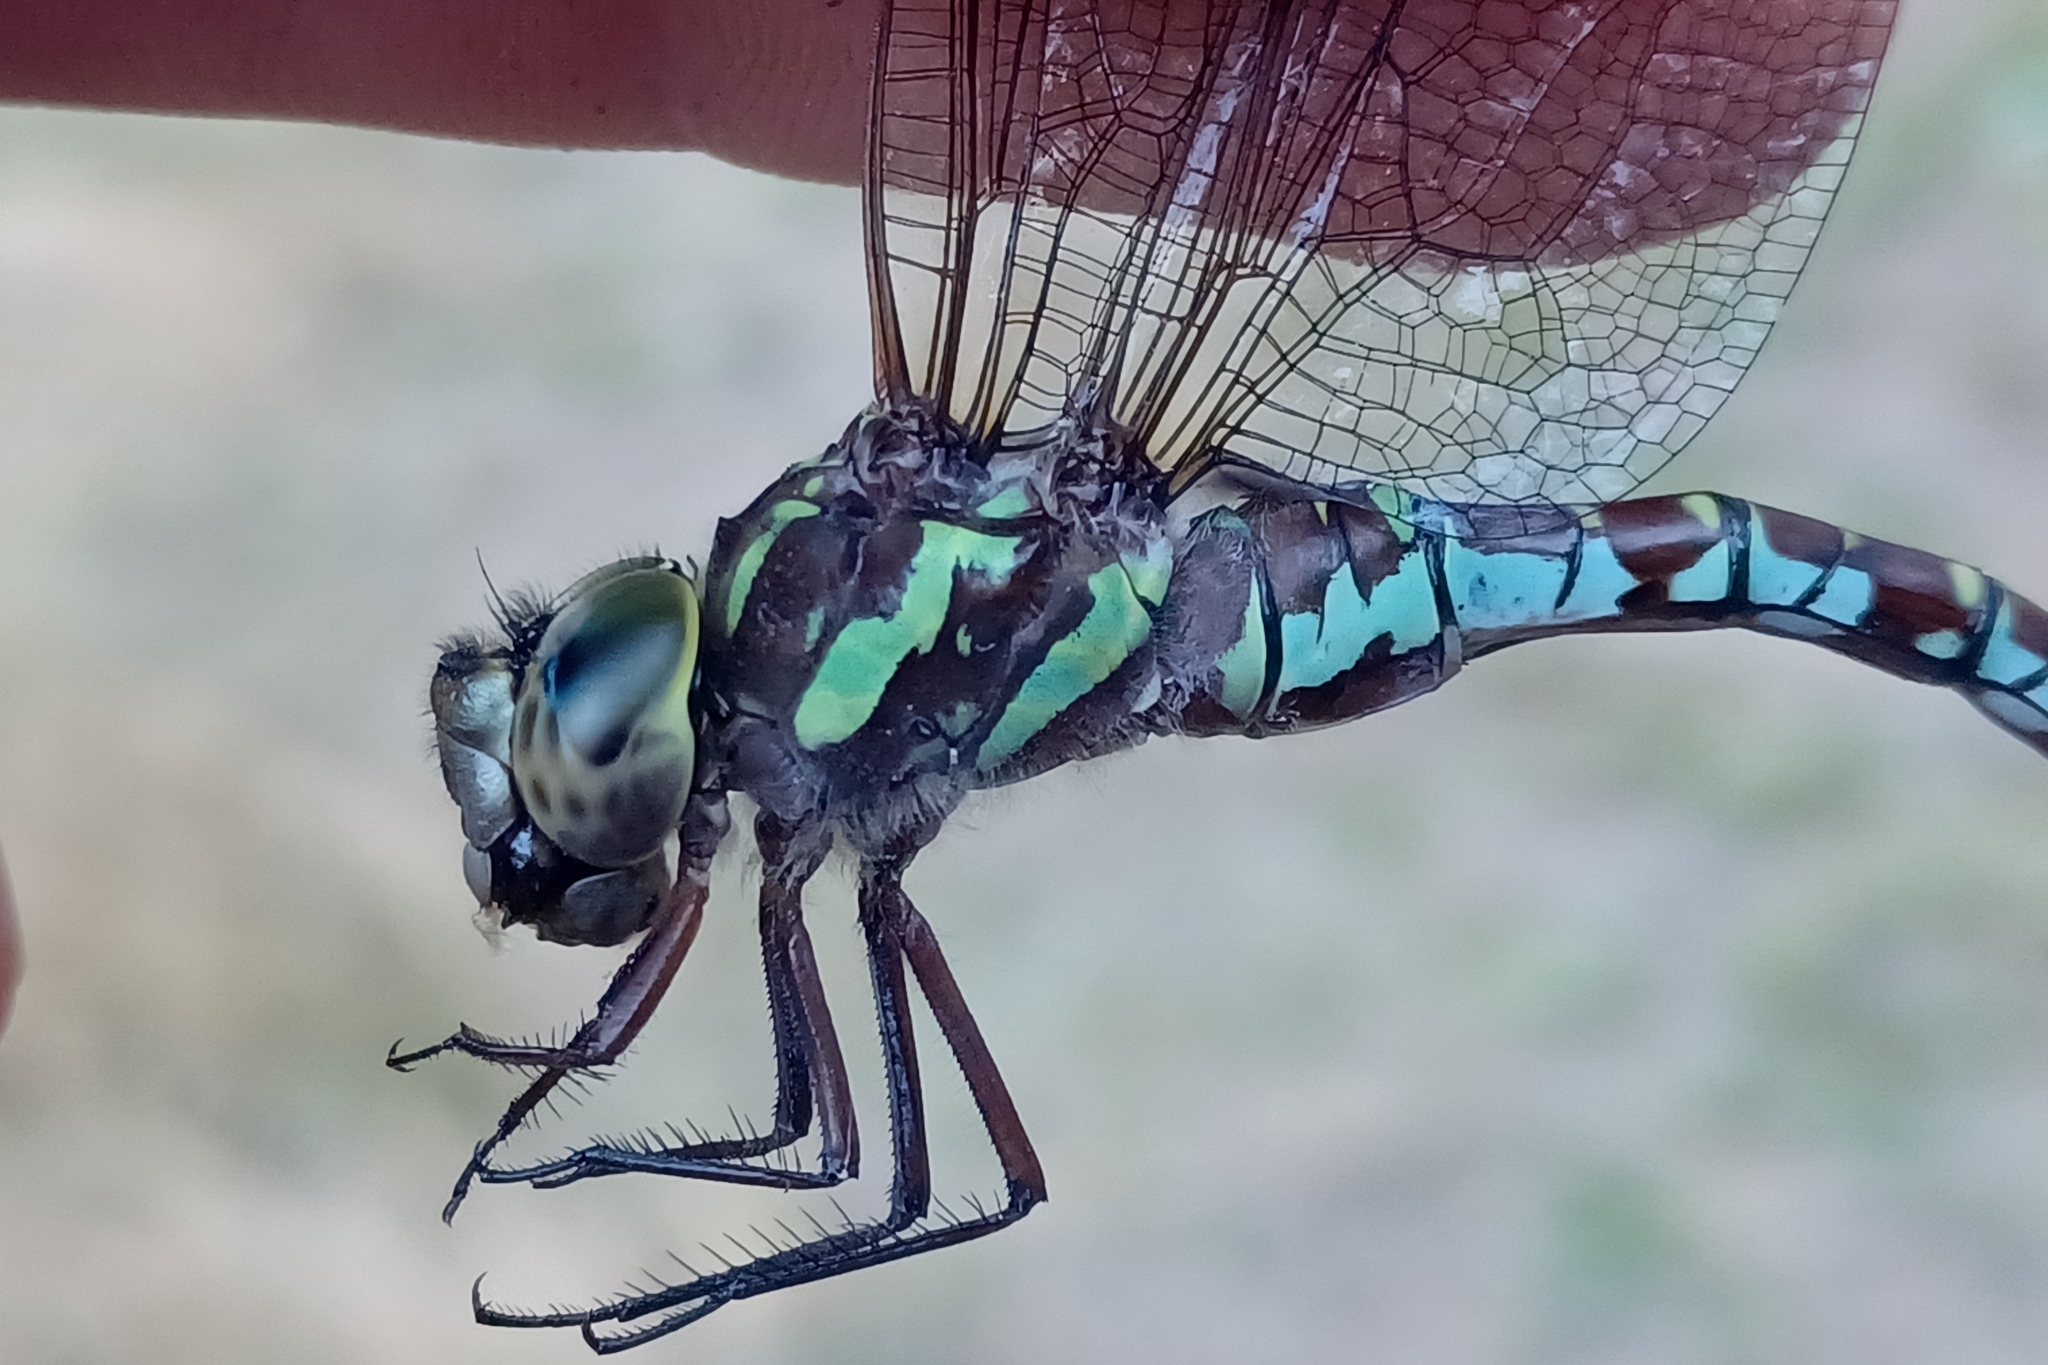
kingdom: Animalia
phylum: Arthropoda
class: Insecta
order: Odonata
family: Aeshnidae
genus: Aeshna
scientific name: Aeshna verticalis
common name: Green-striped darner
